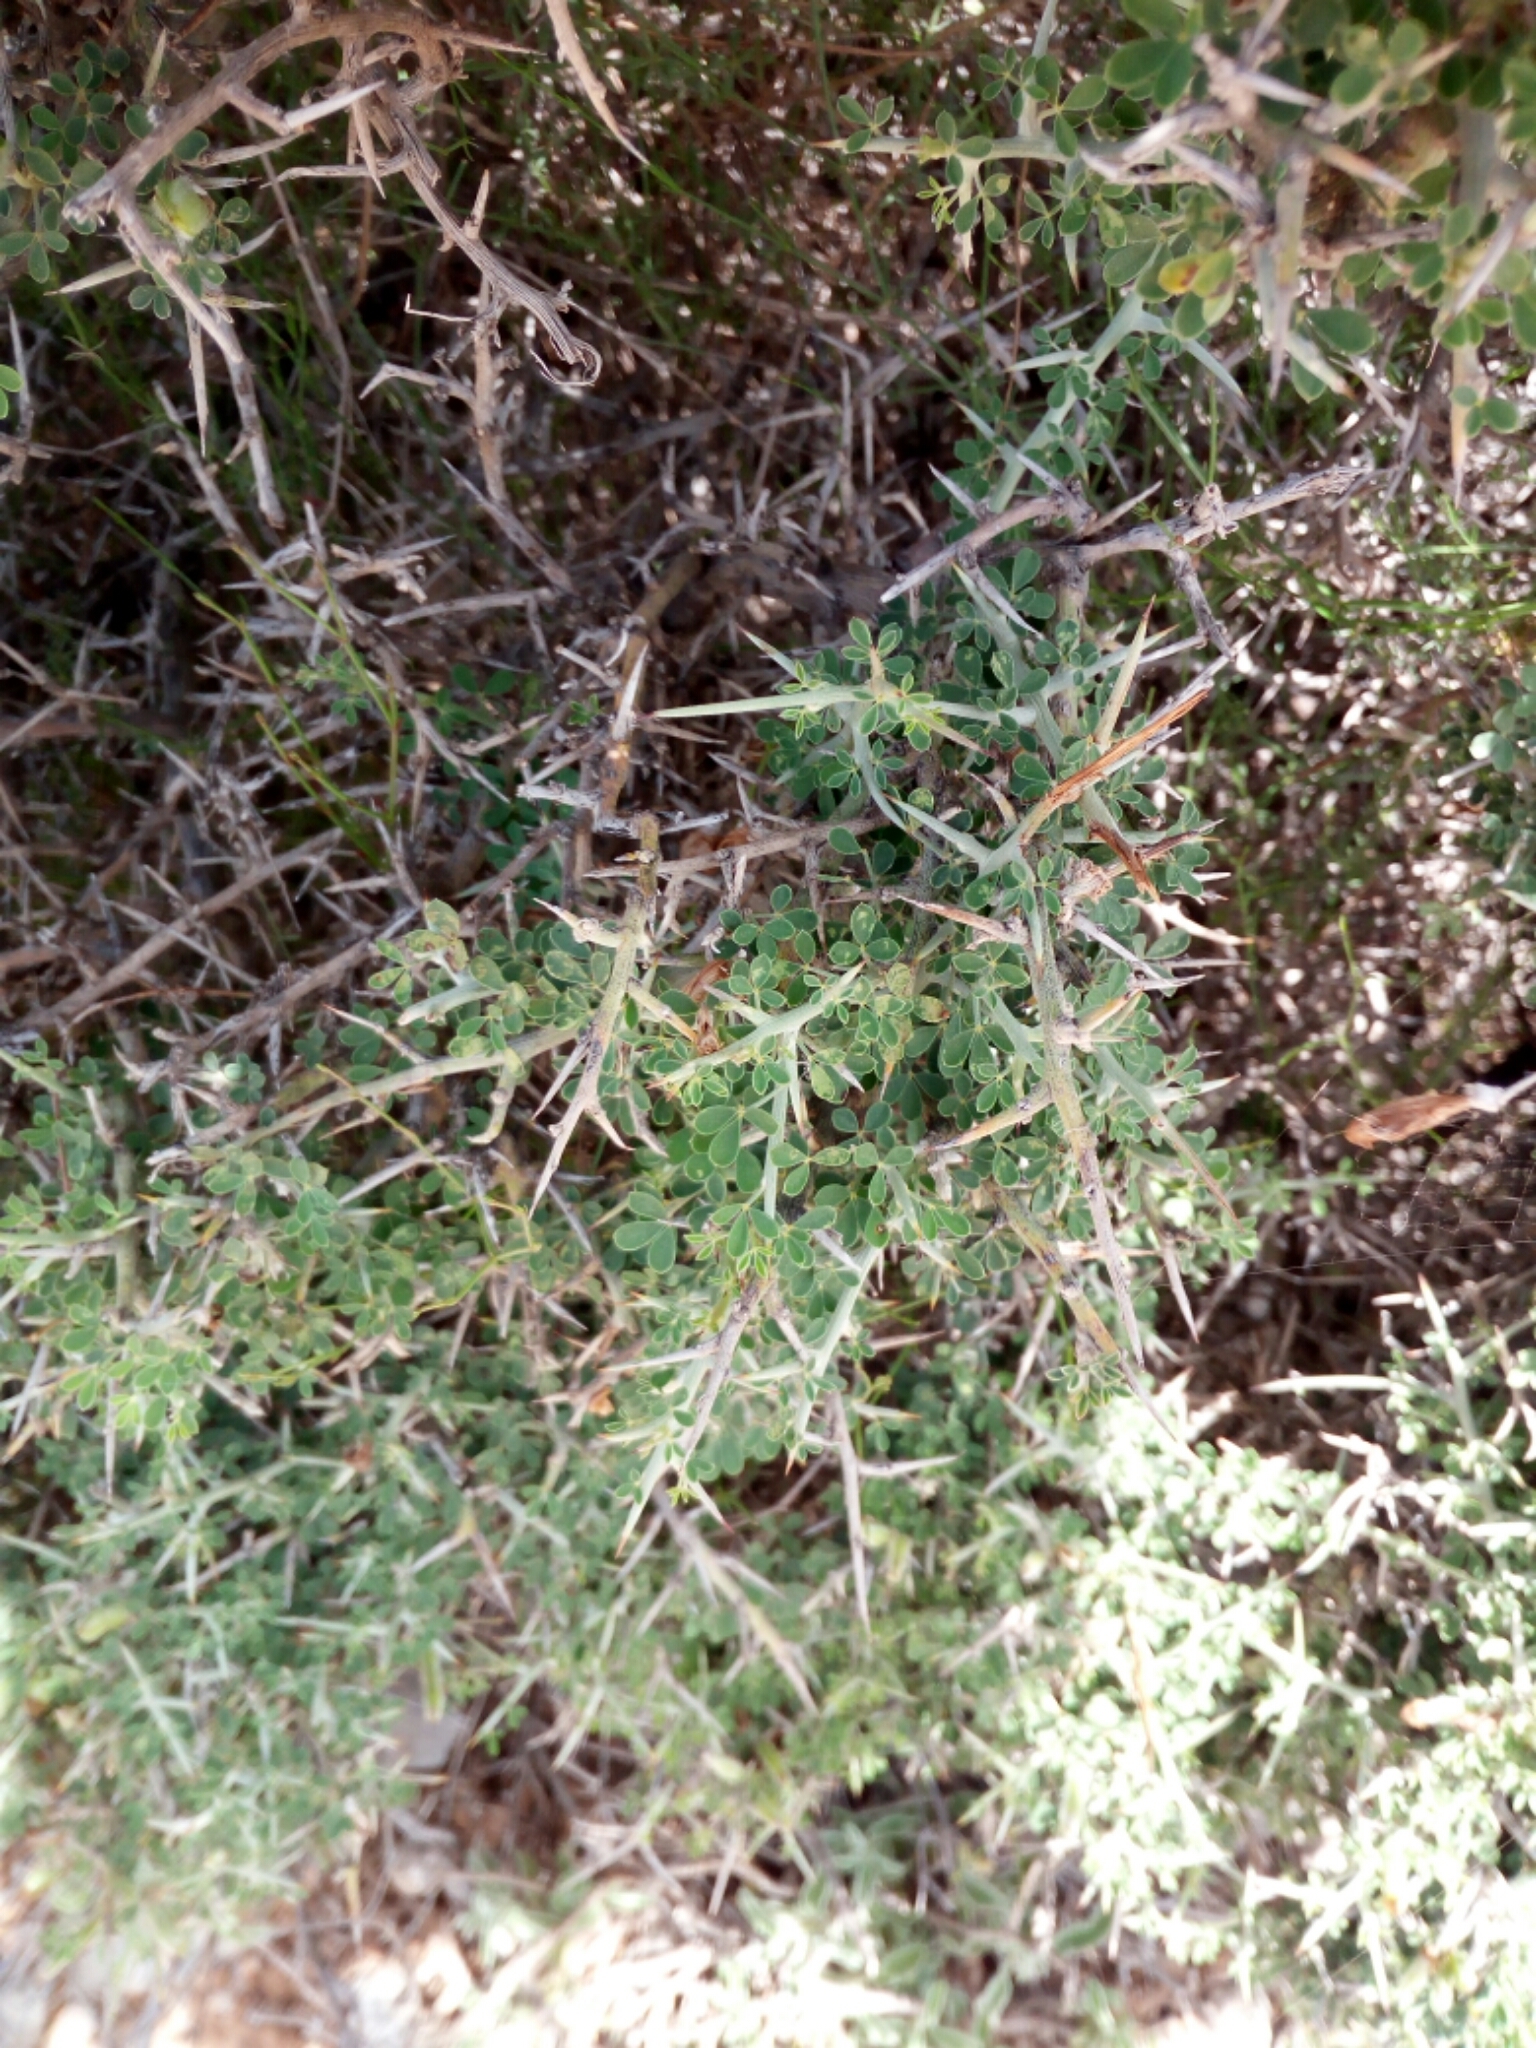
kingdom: Plantae
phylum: Tracheophyta
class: Magnoliopsida
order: Fabales
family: Fabaceae
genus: Calicotome
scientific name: Calicotome villosa
